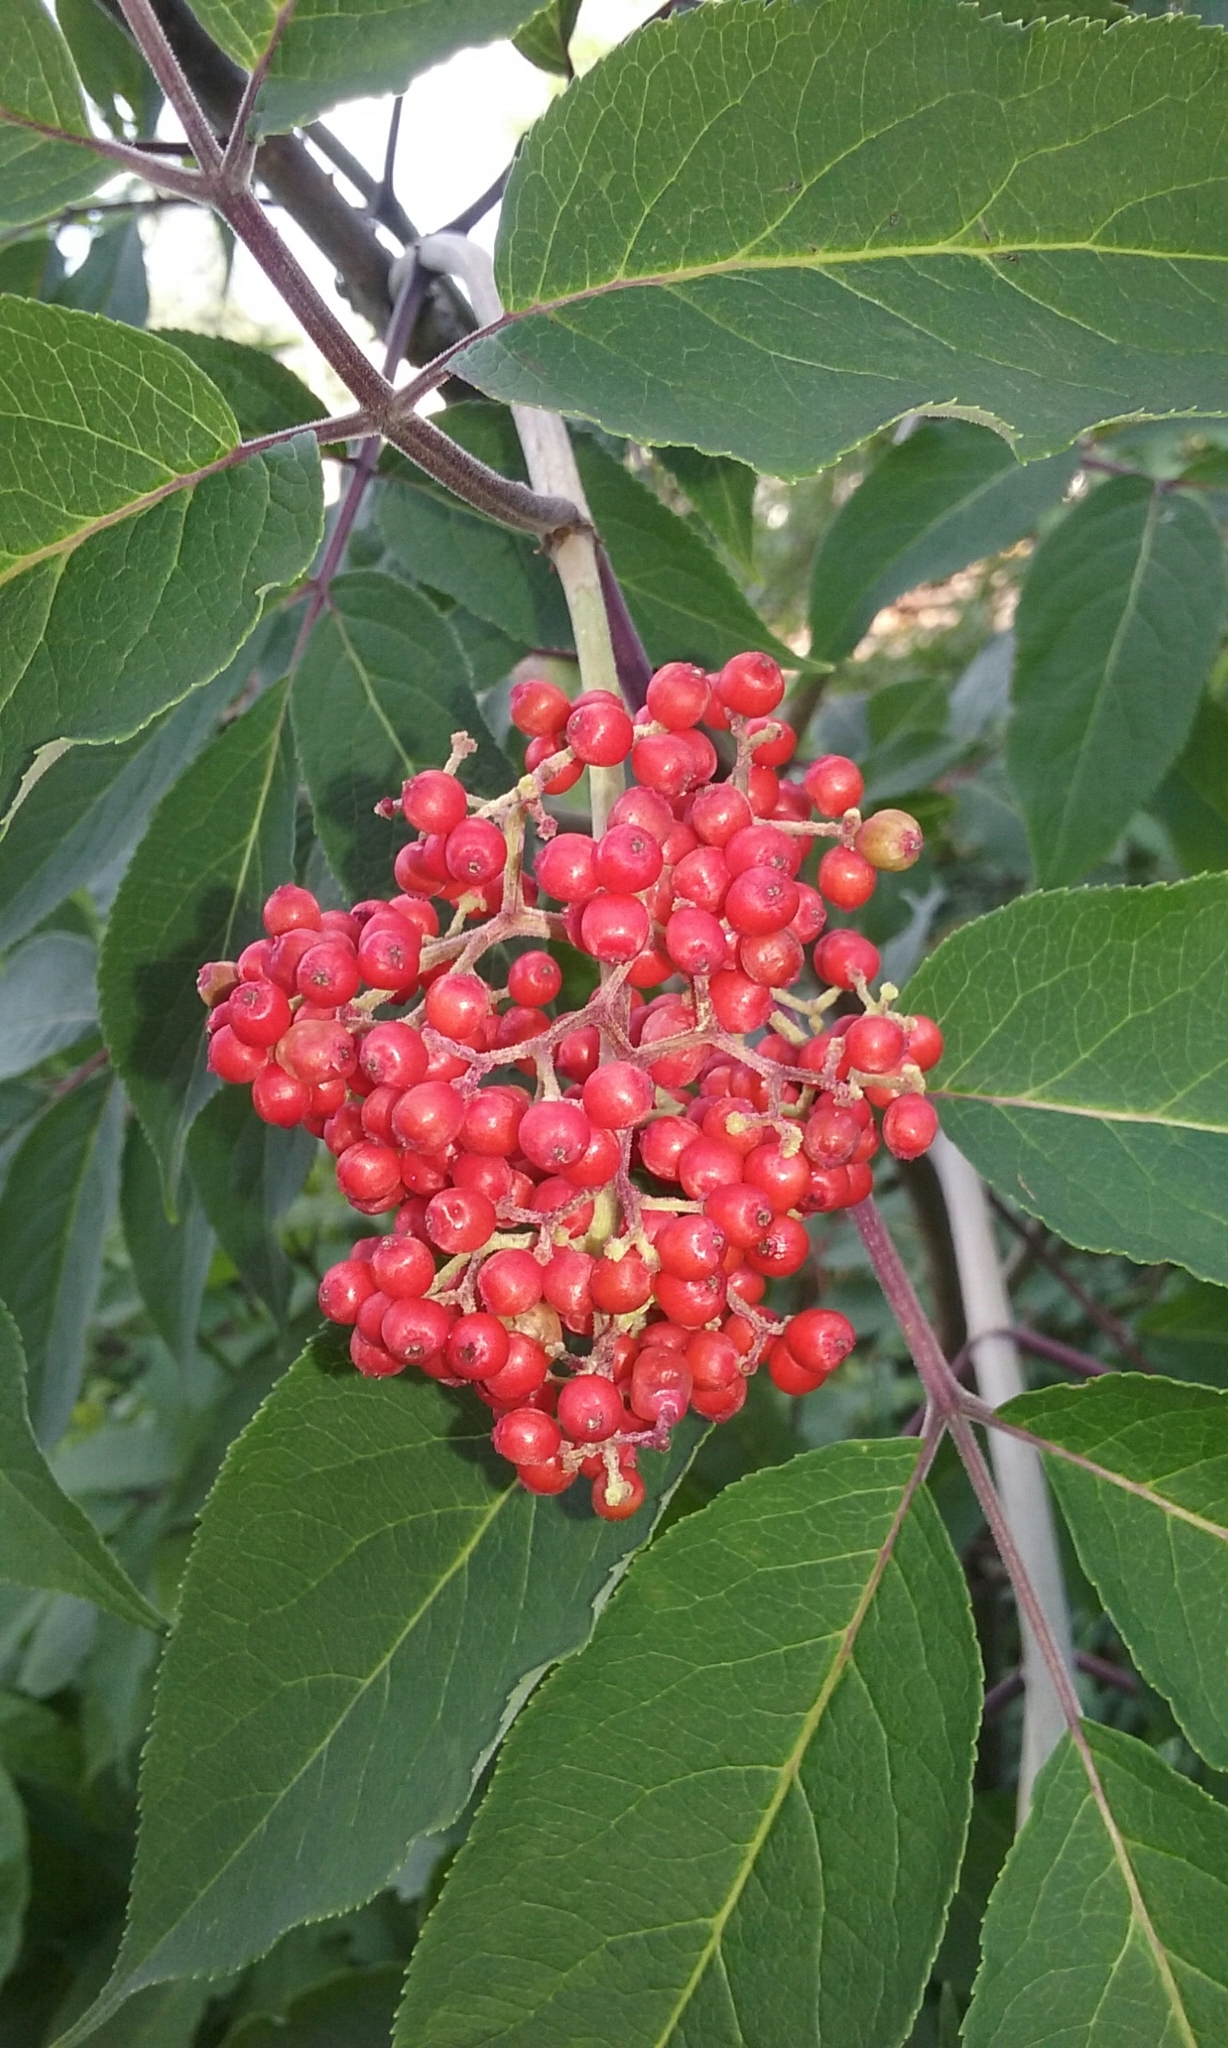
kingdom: Plantae
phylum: Tracheophyta
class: Magnoliopsida
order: Dipsacales
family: Viburnaceae
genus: Sambucus
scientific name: Sambucus racemosa
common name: Red-berried elder
